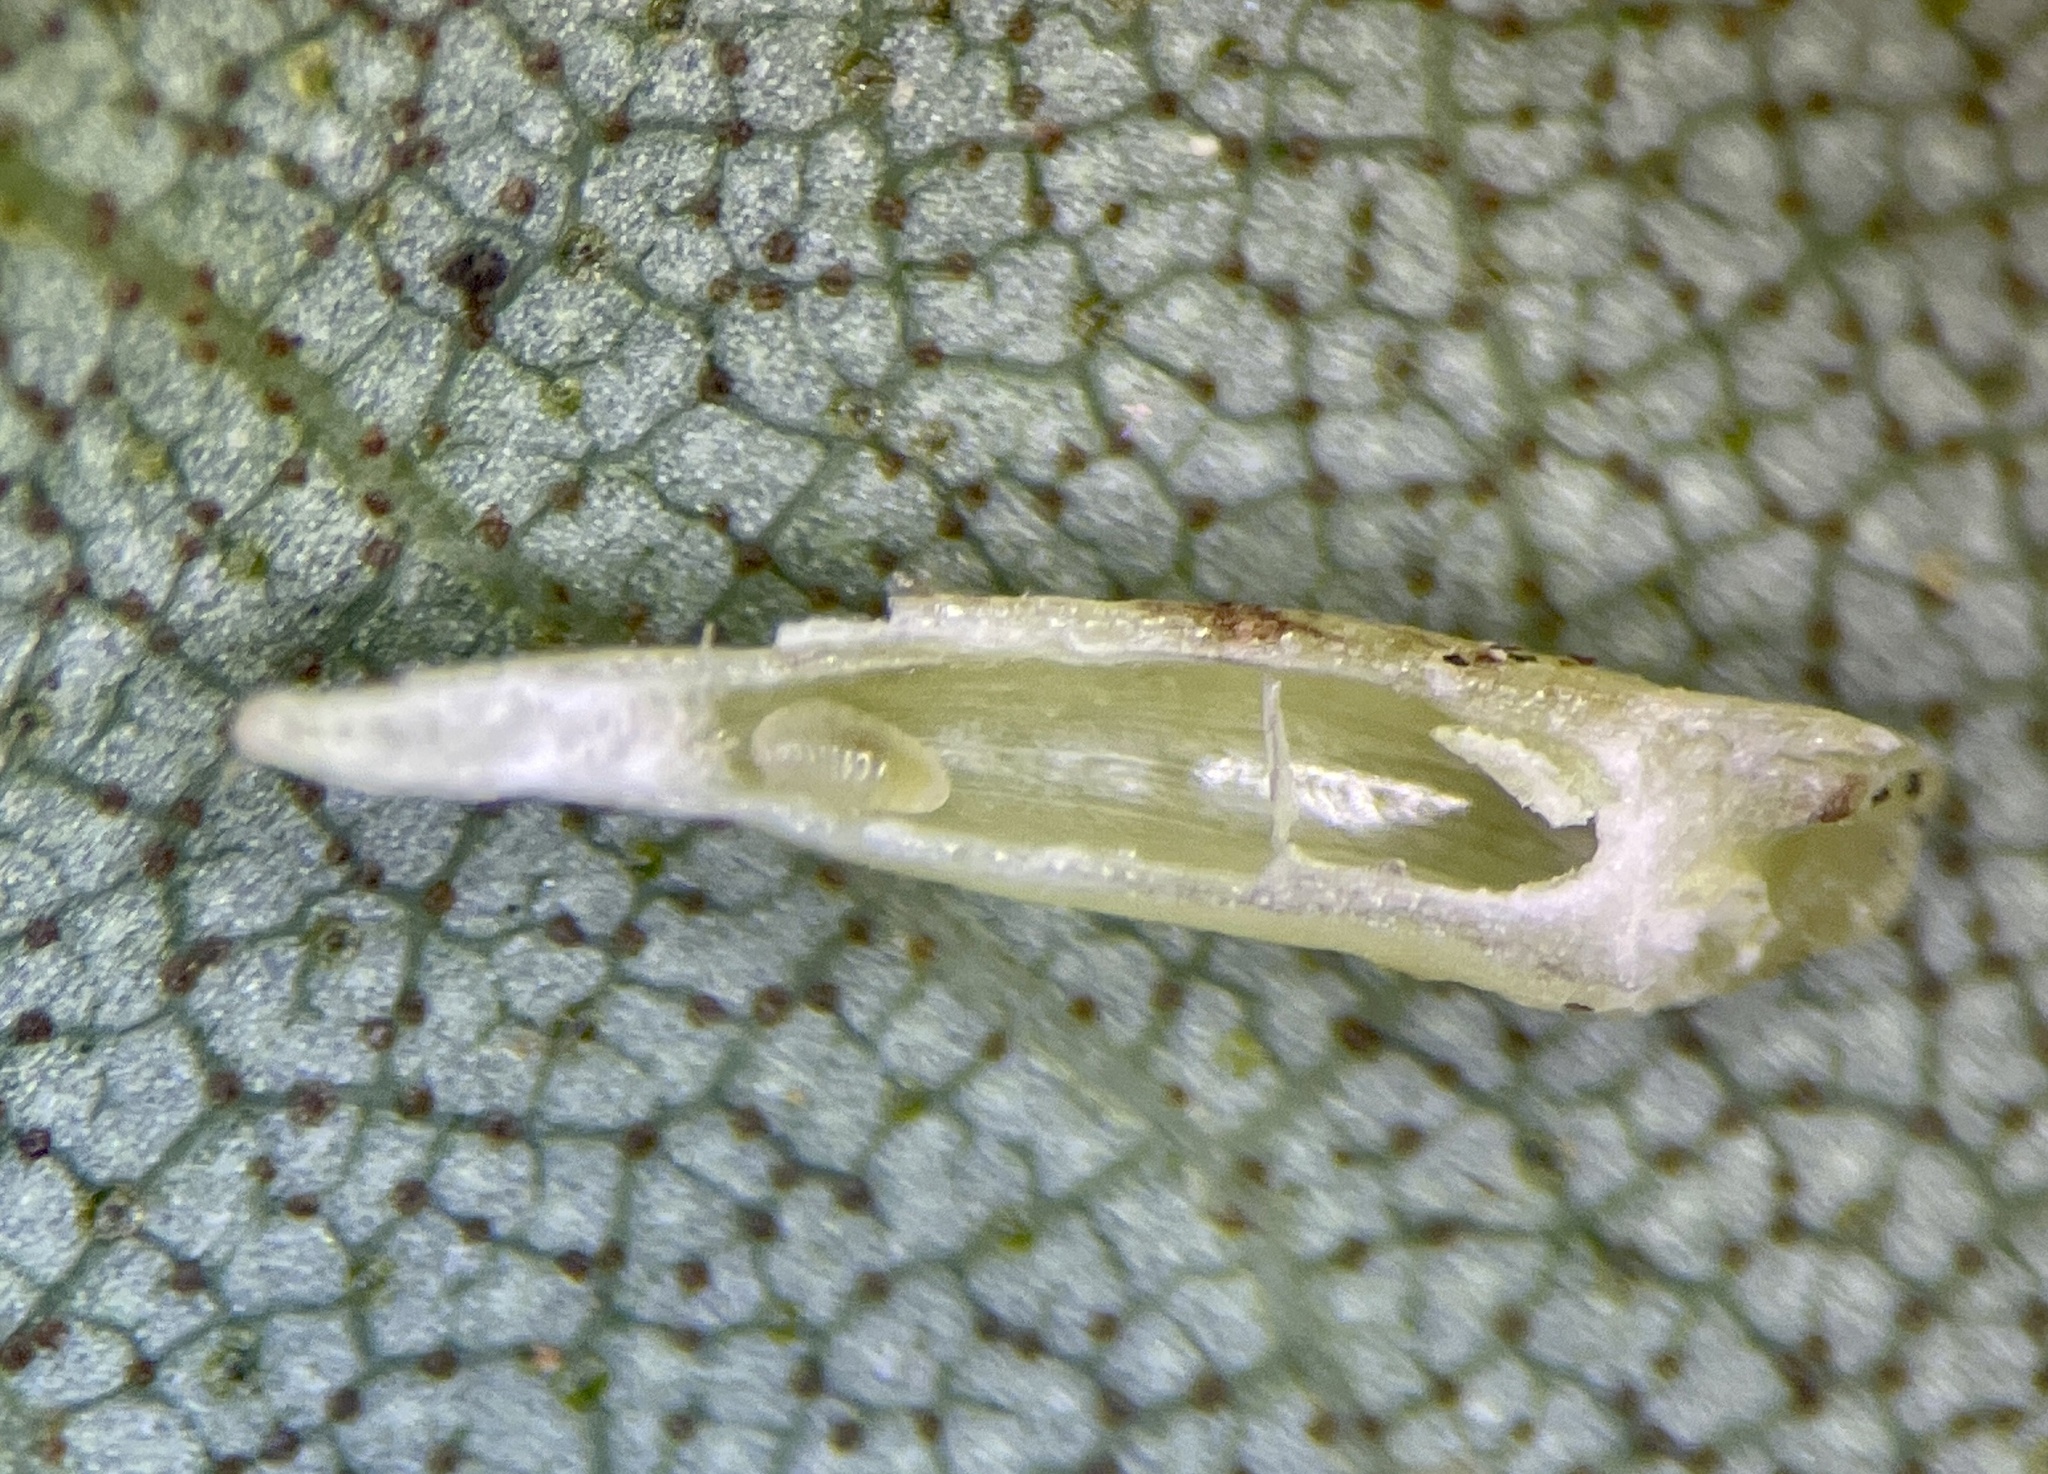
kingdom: Animalia
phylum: Arthropoda
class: Insecta
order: Diptera
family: Cecidomyiidae
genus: Caryomyia
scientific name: Caryomyia
